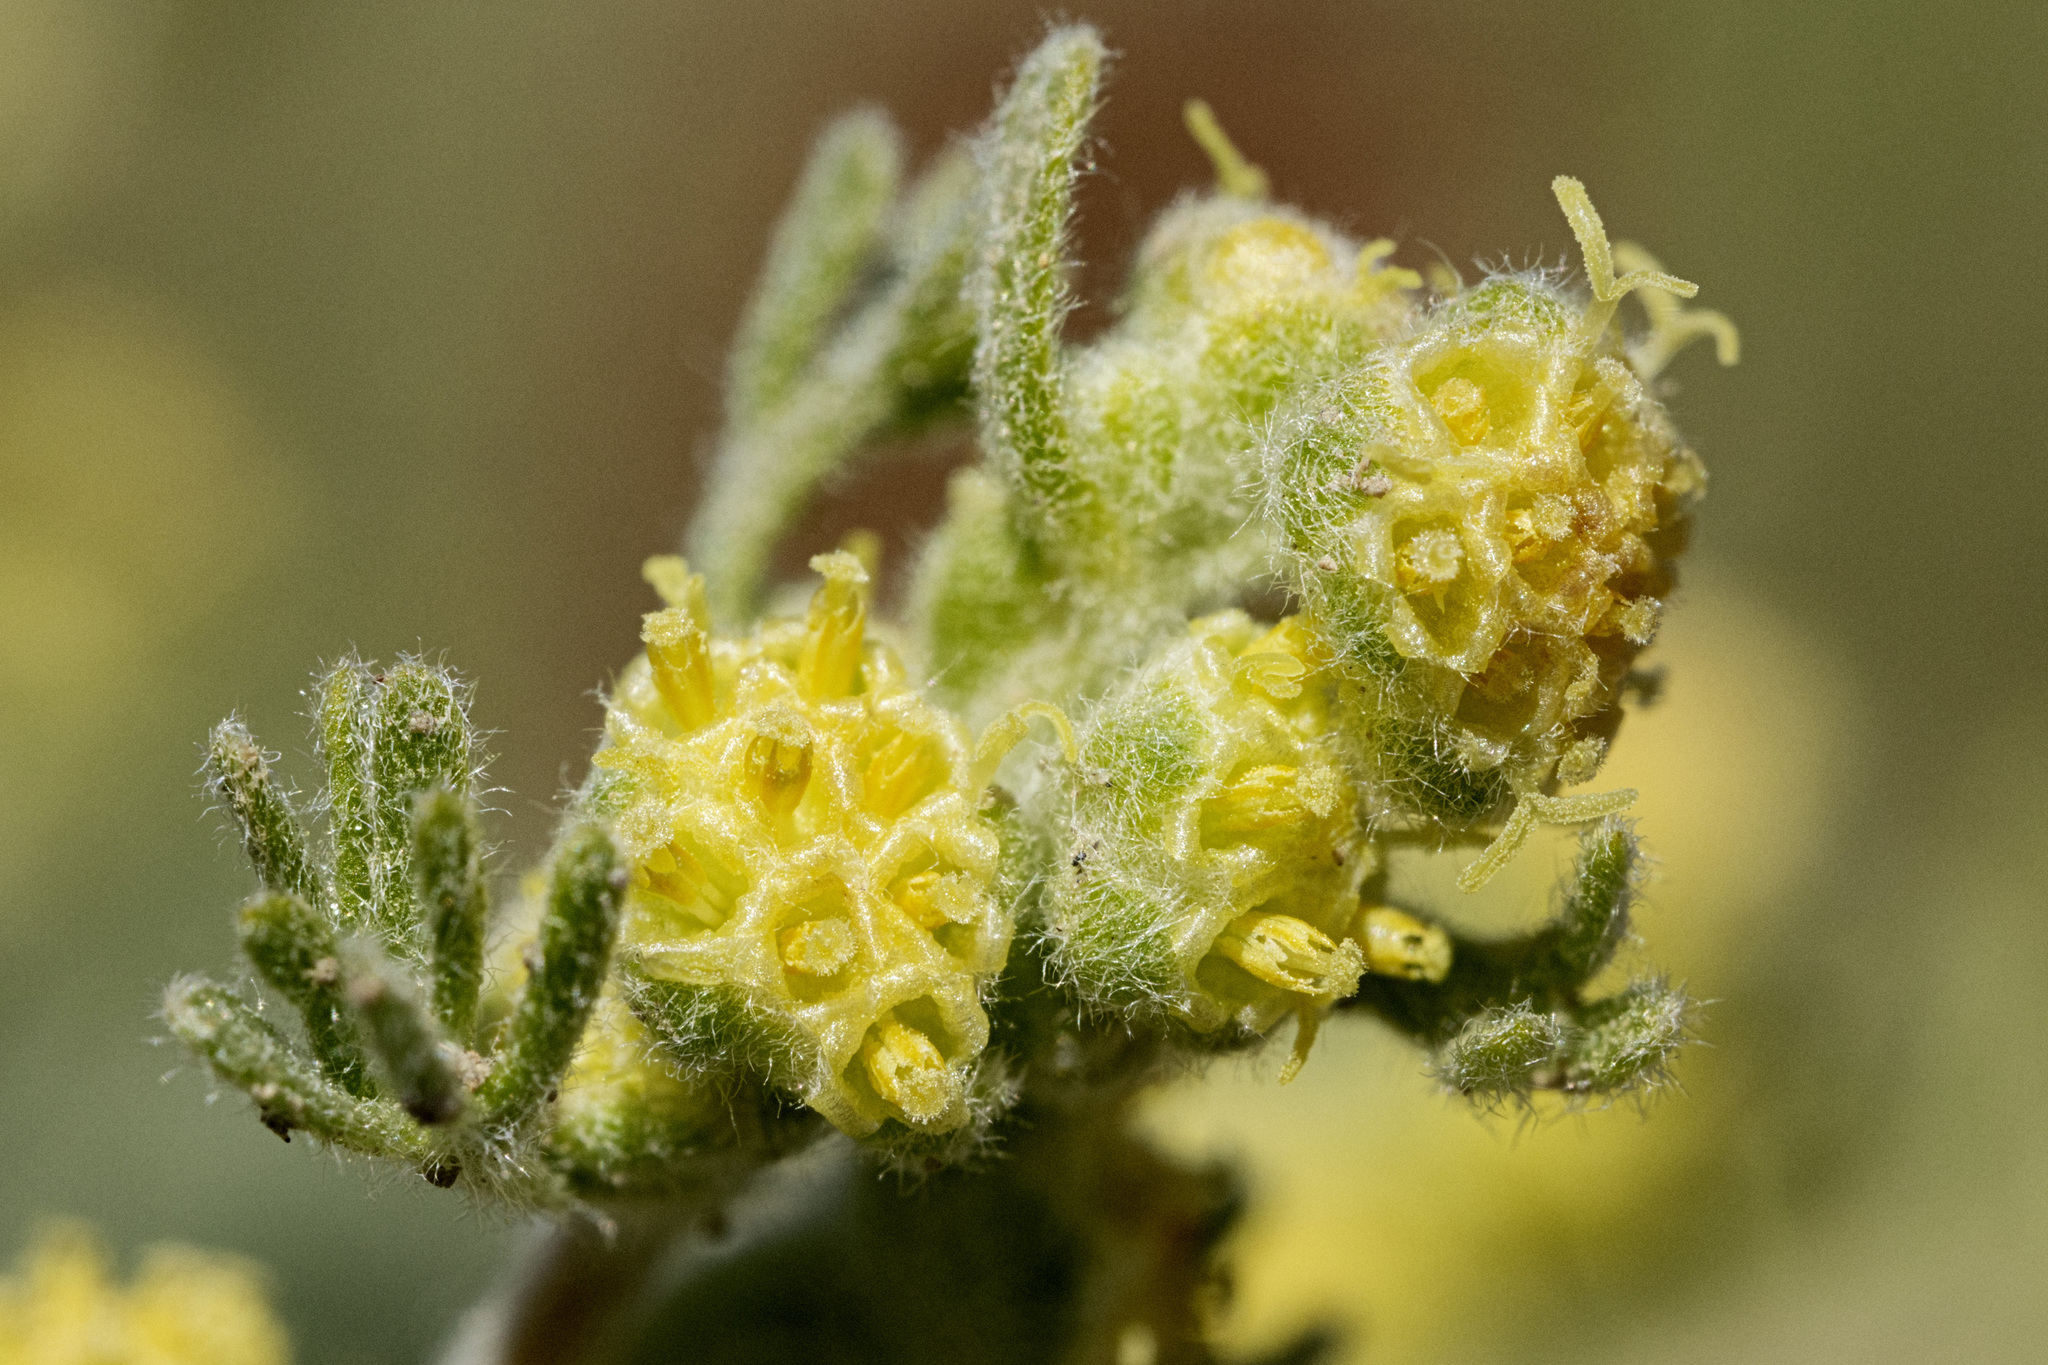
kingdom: Plantae
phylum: Tracheophyta
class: Magnoliopsida
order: Asterales
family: Asteraceae
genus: Artemisia
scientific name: Artemisia spinescens
